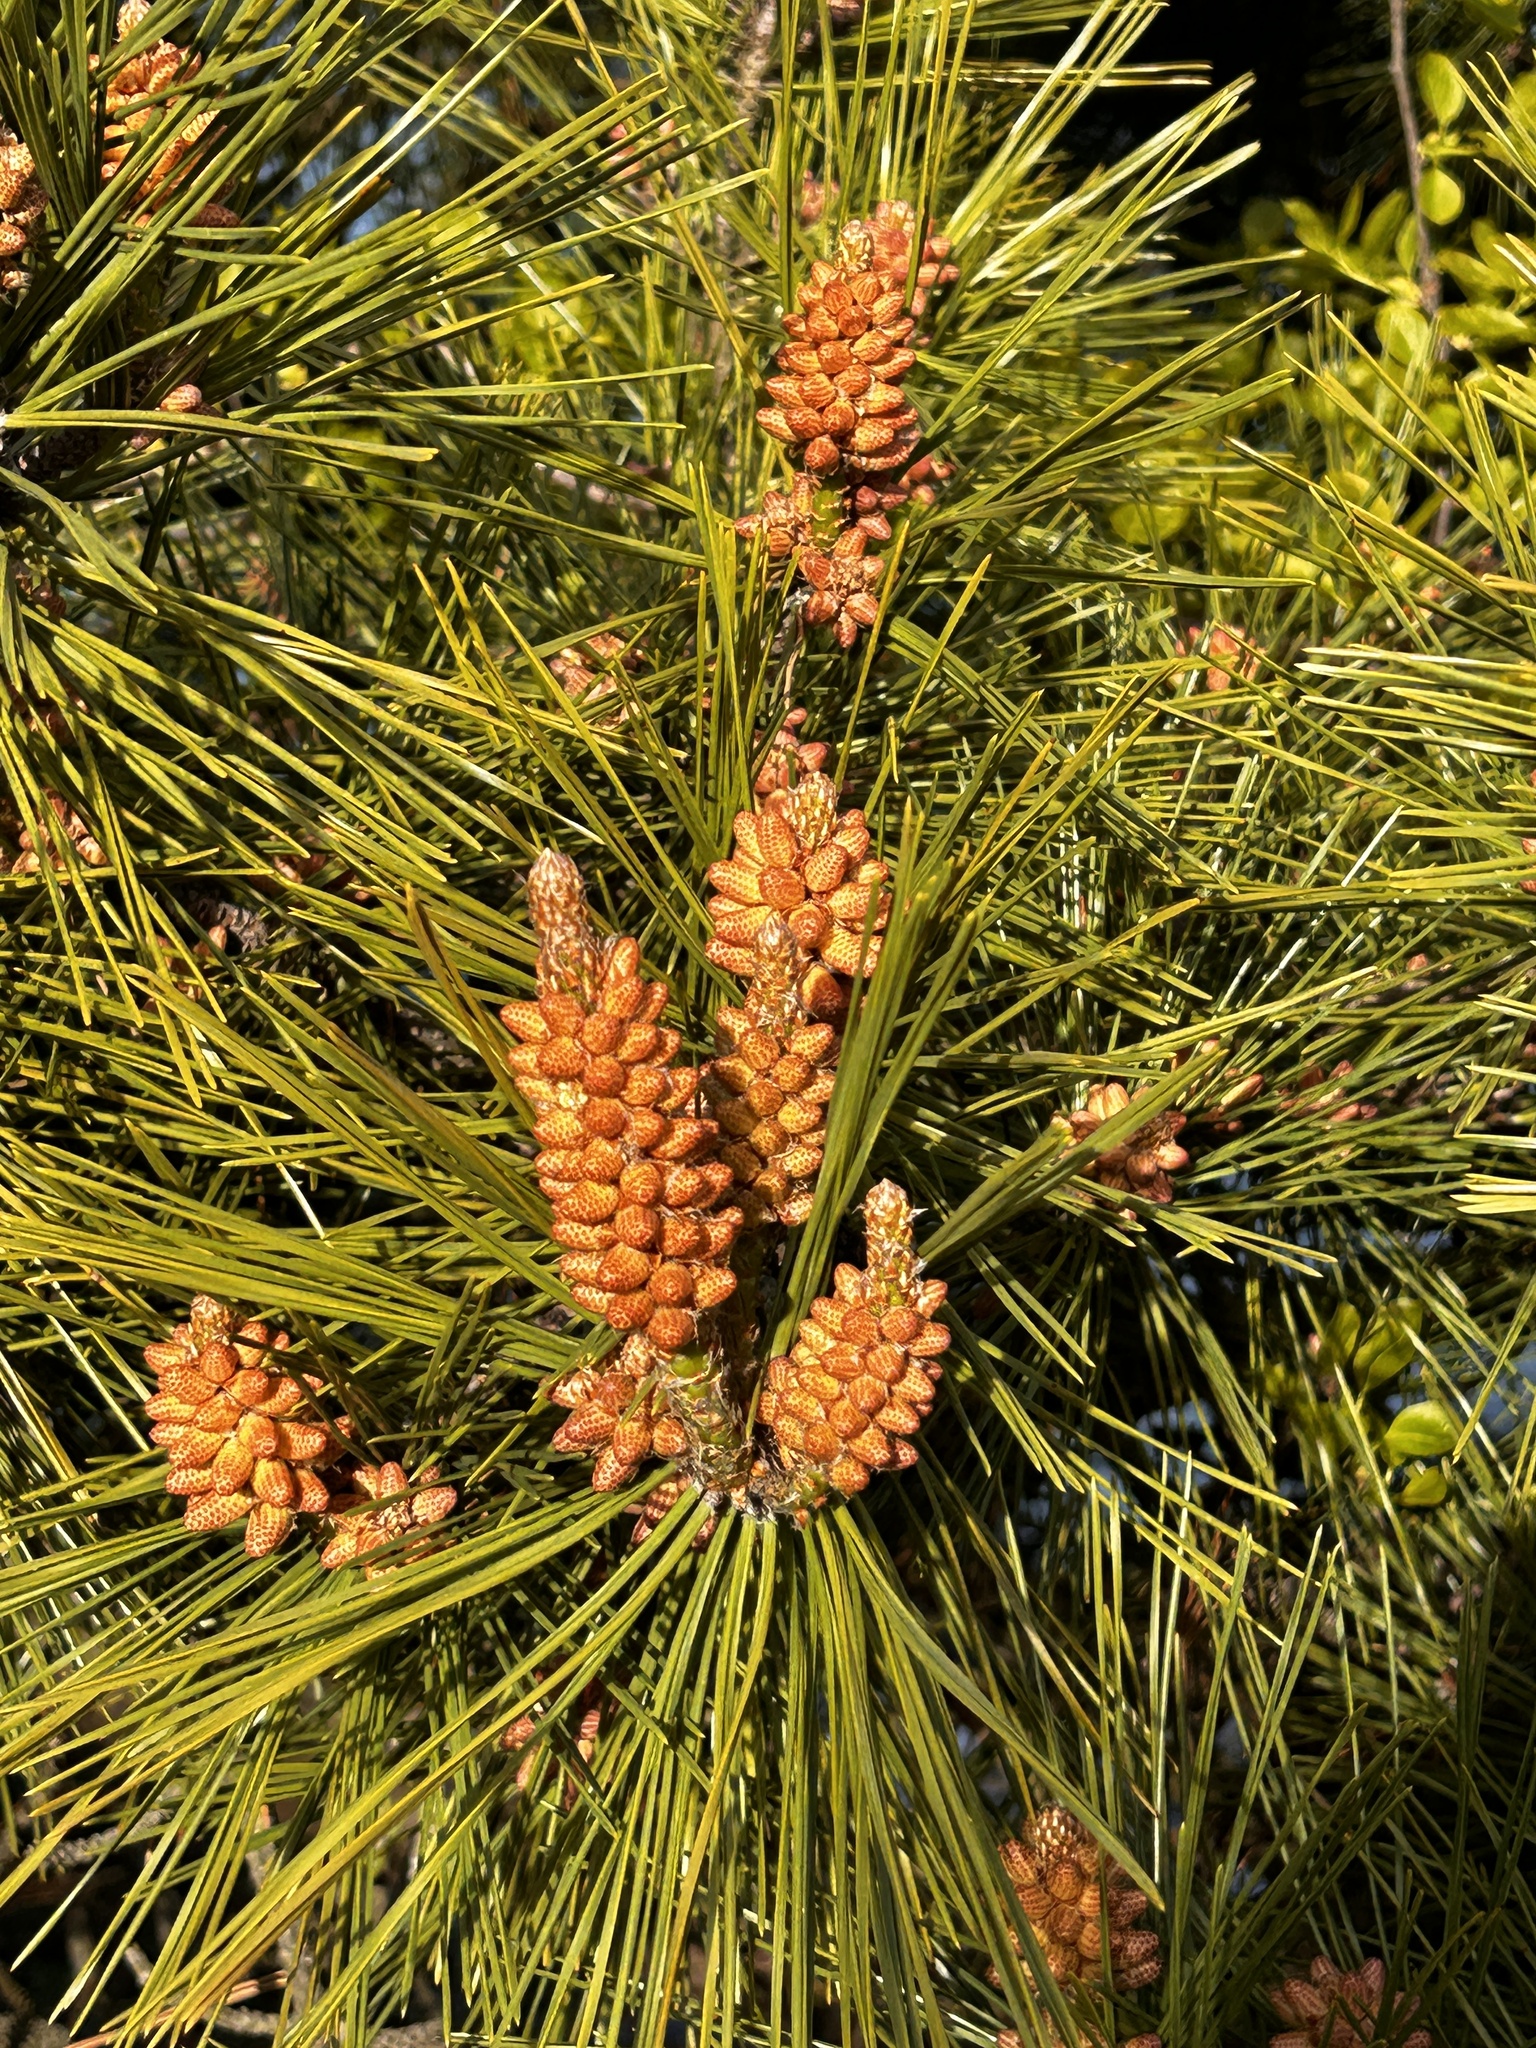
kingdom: Plantae
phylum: Tracheophyta
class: Pinopsida
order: Pinales
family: Pinaceae
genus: Pinus
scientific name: Pinus rigida
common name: Pitch pine
